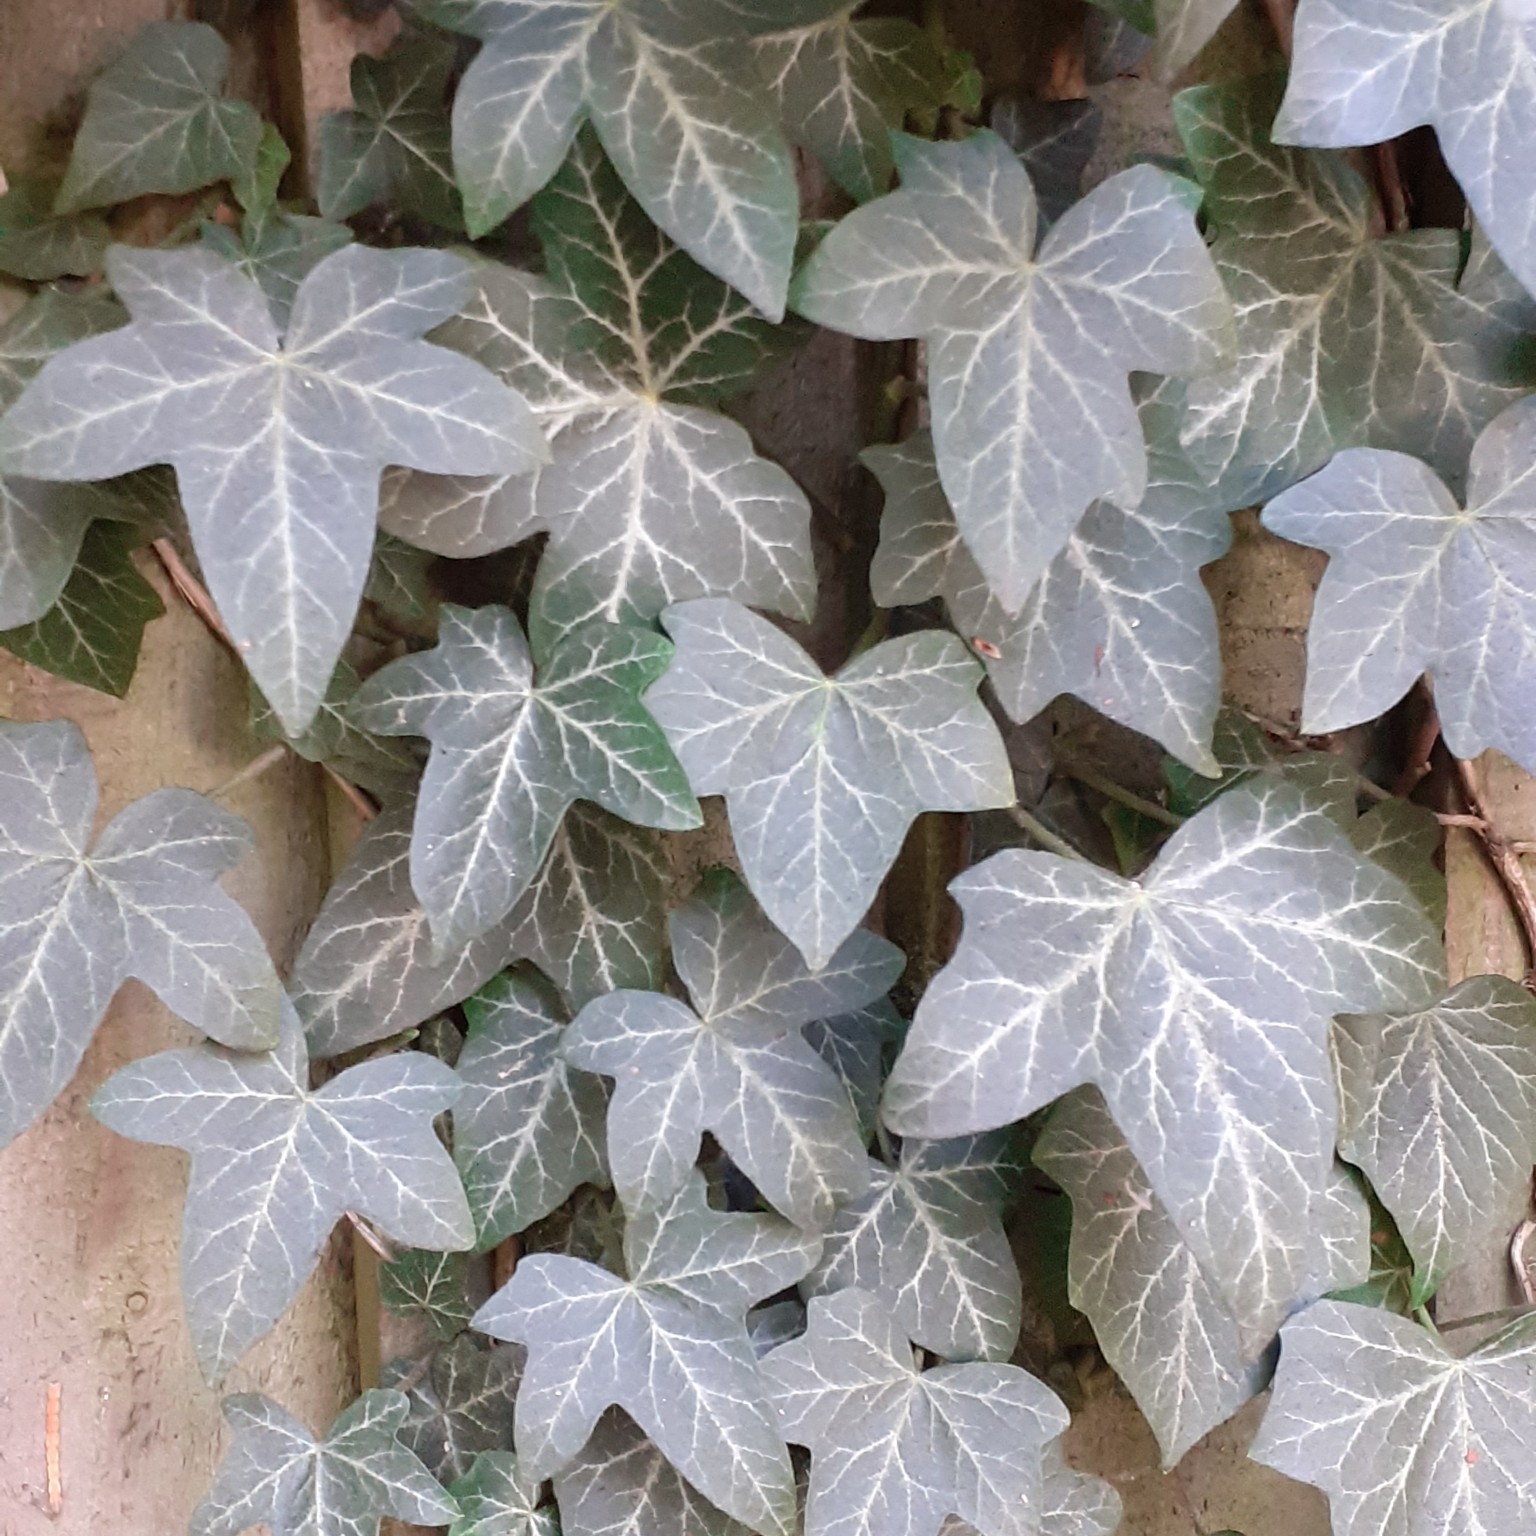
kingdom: Plantae
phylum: Tracheophyta
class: Magnoliopsida
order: Apiales
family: Araliaceae
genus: Hedera
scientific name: Hedera helix
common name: Ivy
